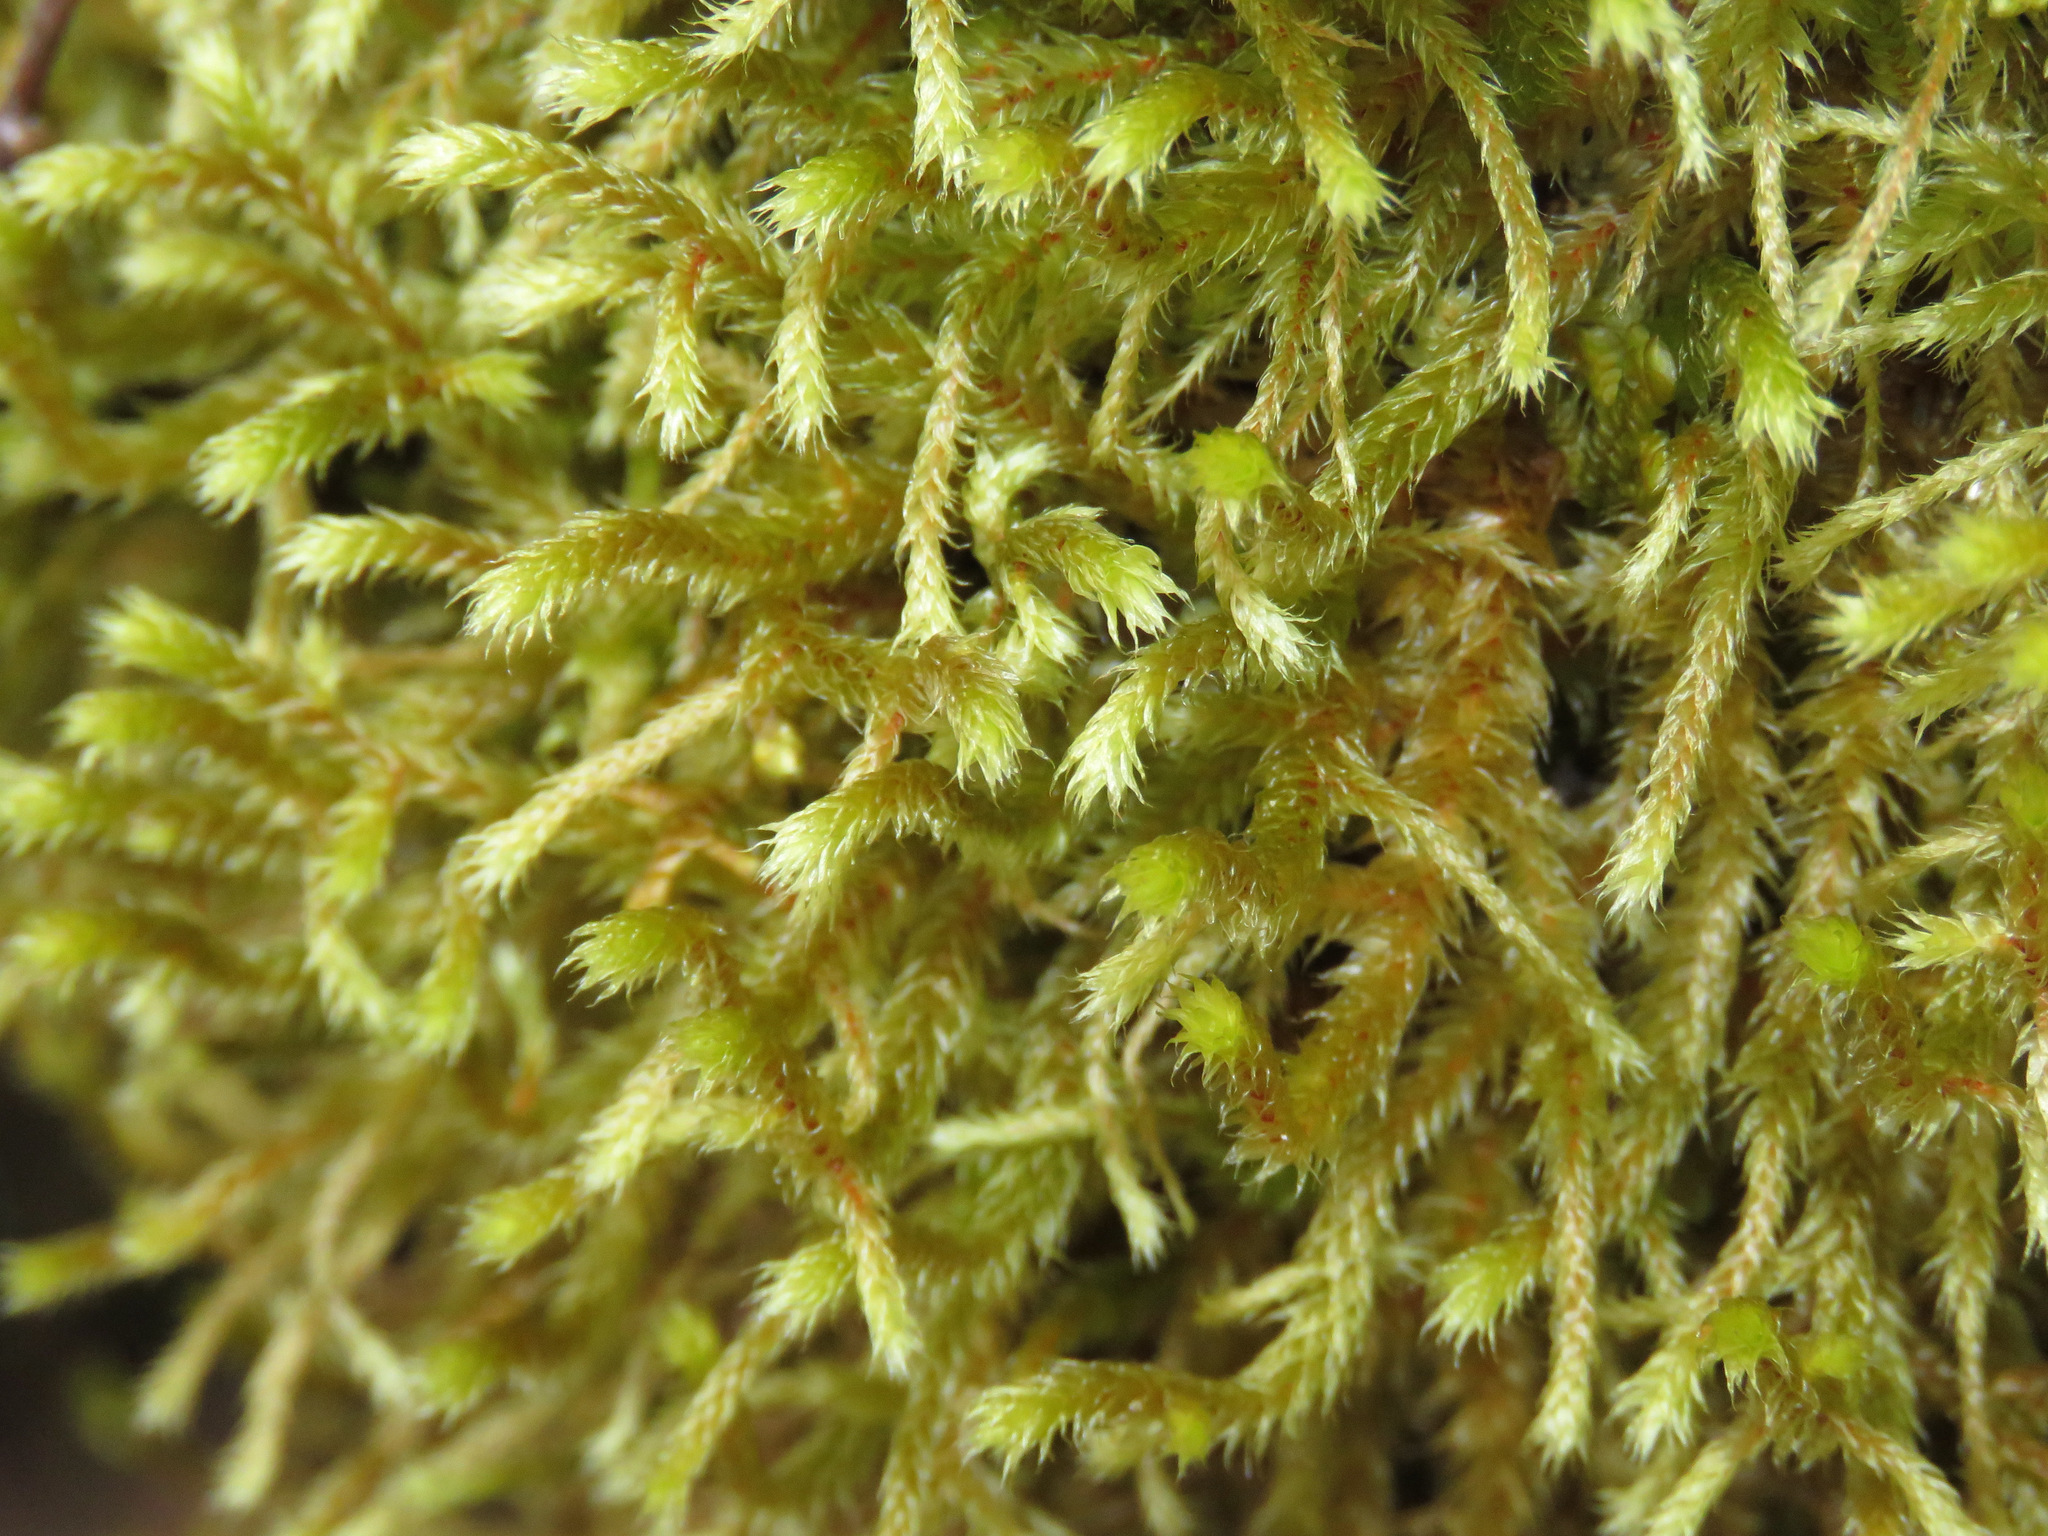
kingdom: Plantae
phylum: Bryophyta
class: Bryopsida
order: Hypnales
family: Antitrichiaceae
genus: Antitrichia
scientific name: Antitrichia curtipendula
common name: Pendulous wing-moss
